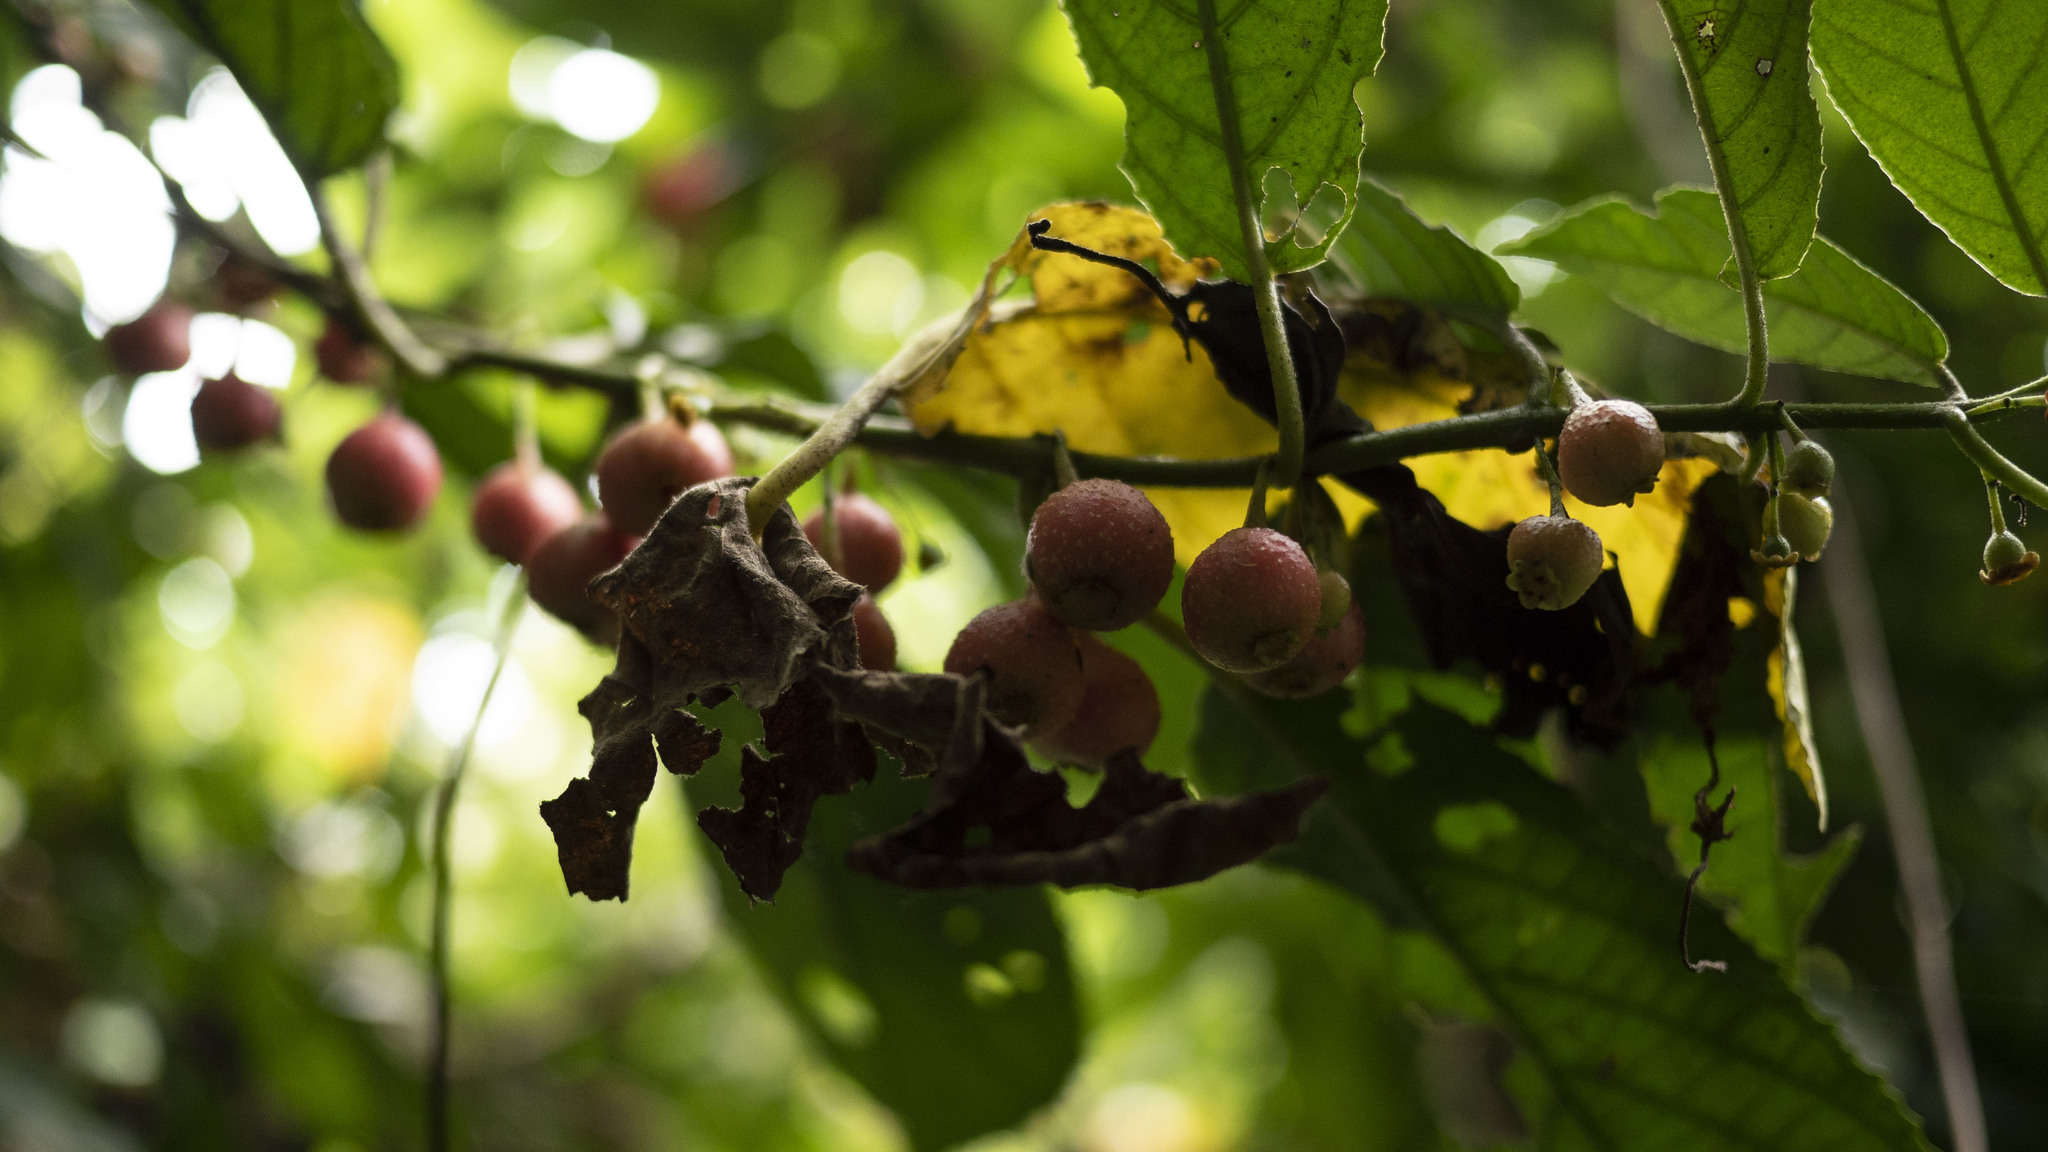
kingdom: Plantae
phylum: Tracheophyta
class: Magnoliopsida
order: Laurales
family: Siparunaceae
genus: Siparuna
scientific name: Siparuna thecaphora
